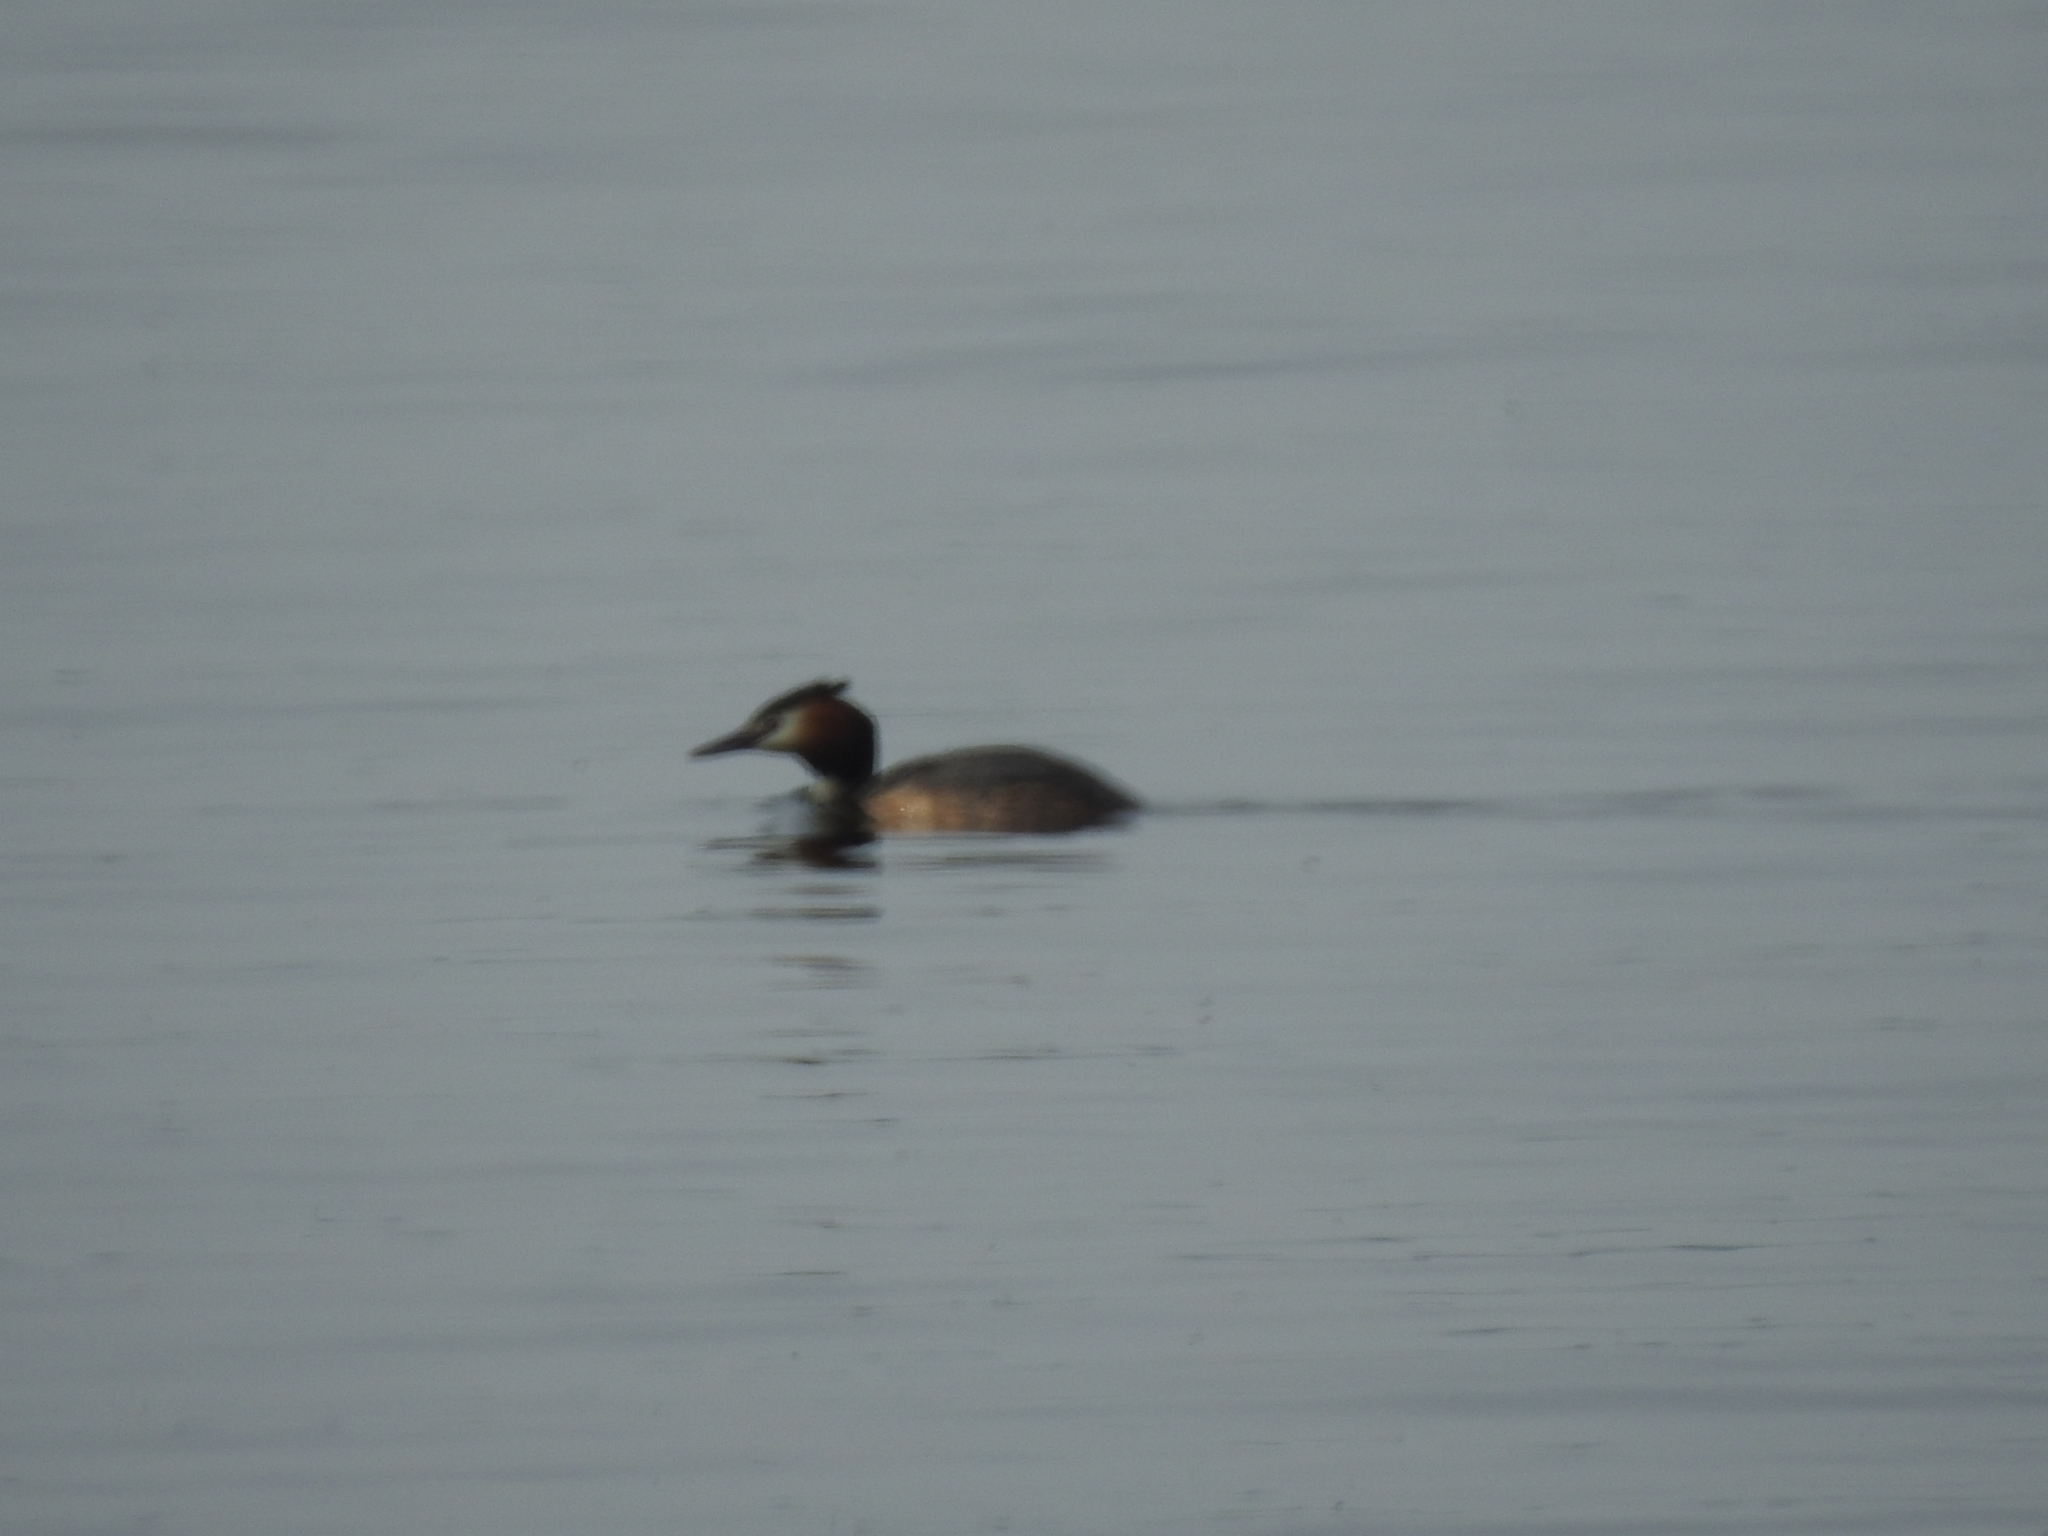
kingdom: Animalia
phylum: Chordata
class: Aves
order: Podicipediformes
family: Podicipedidae
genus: Podiceps
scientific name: Podiceps cristatus
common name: Great crested grebe
